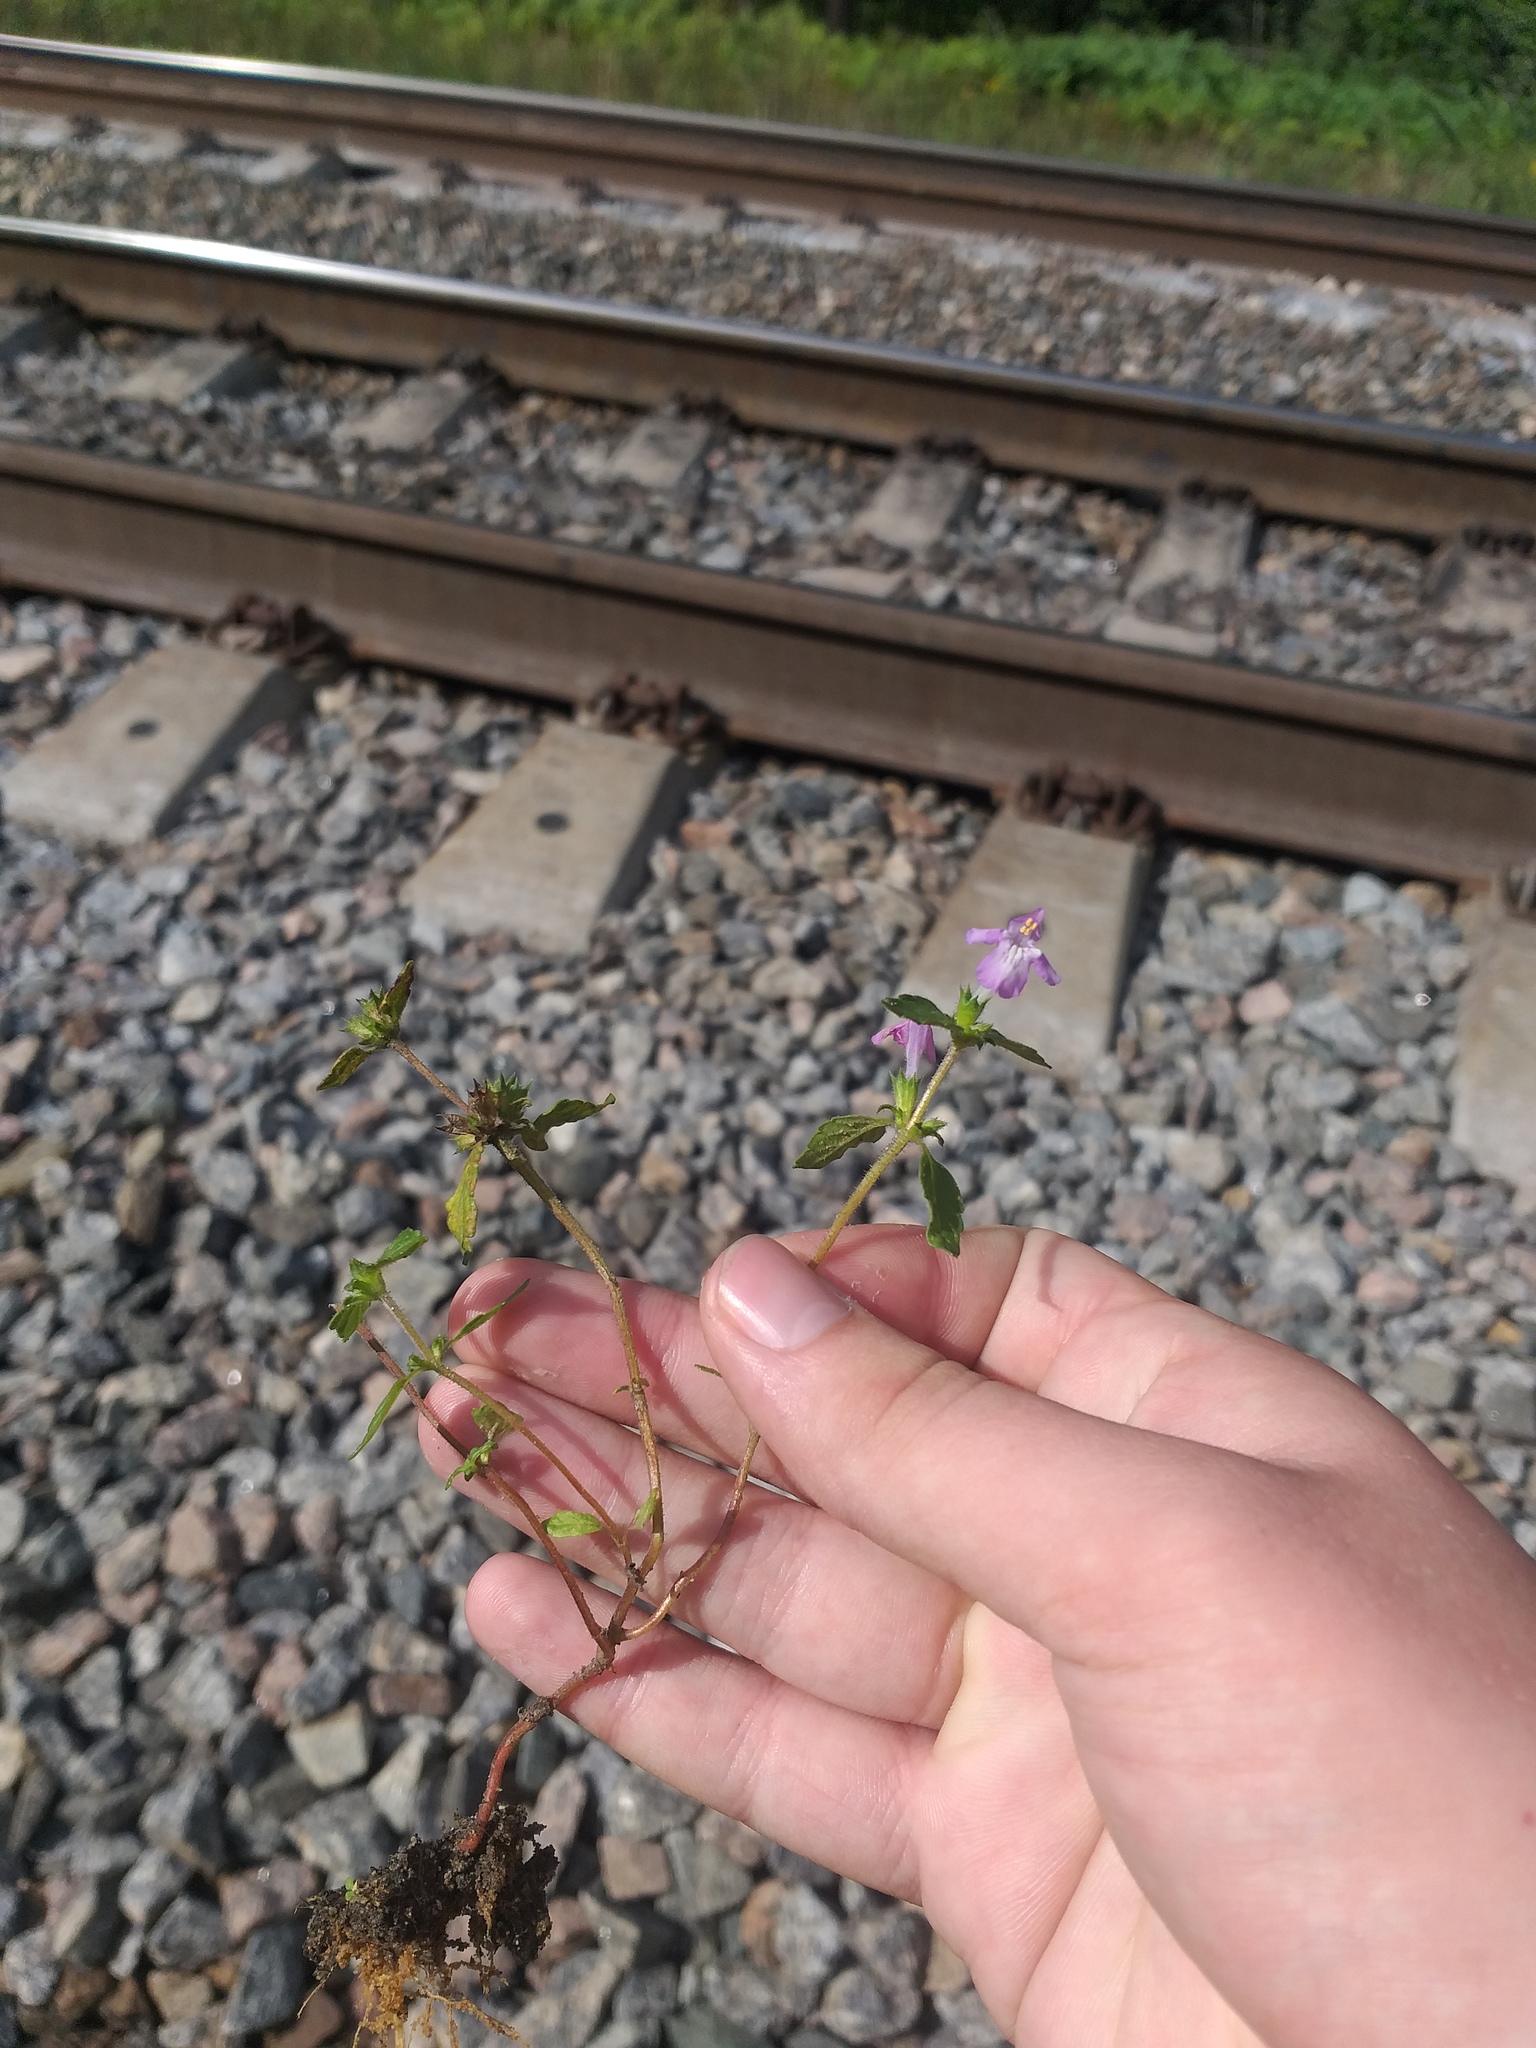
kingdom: Plantae
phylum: Tracheophyta
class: Magnoliopsida
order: Lamiales
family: Lamiaceae
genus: Galeopsis
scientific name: Galeopsis ladanum
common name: Broad-leaved hemp-nettle
